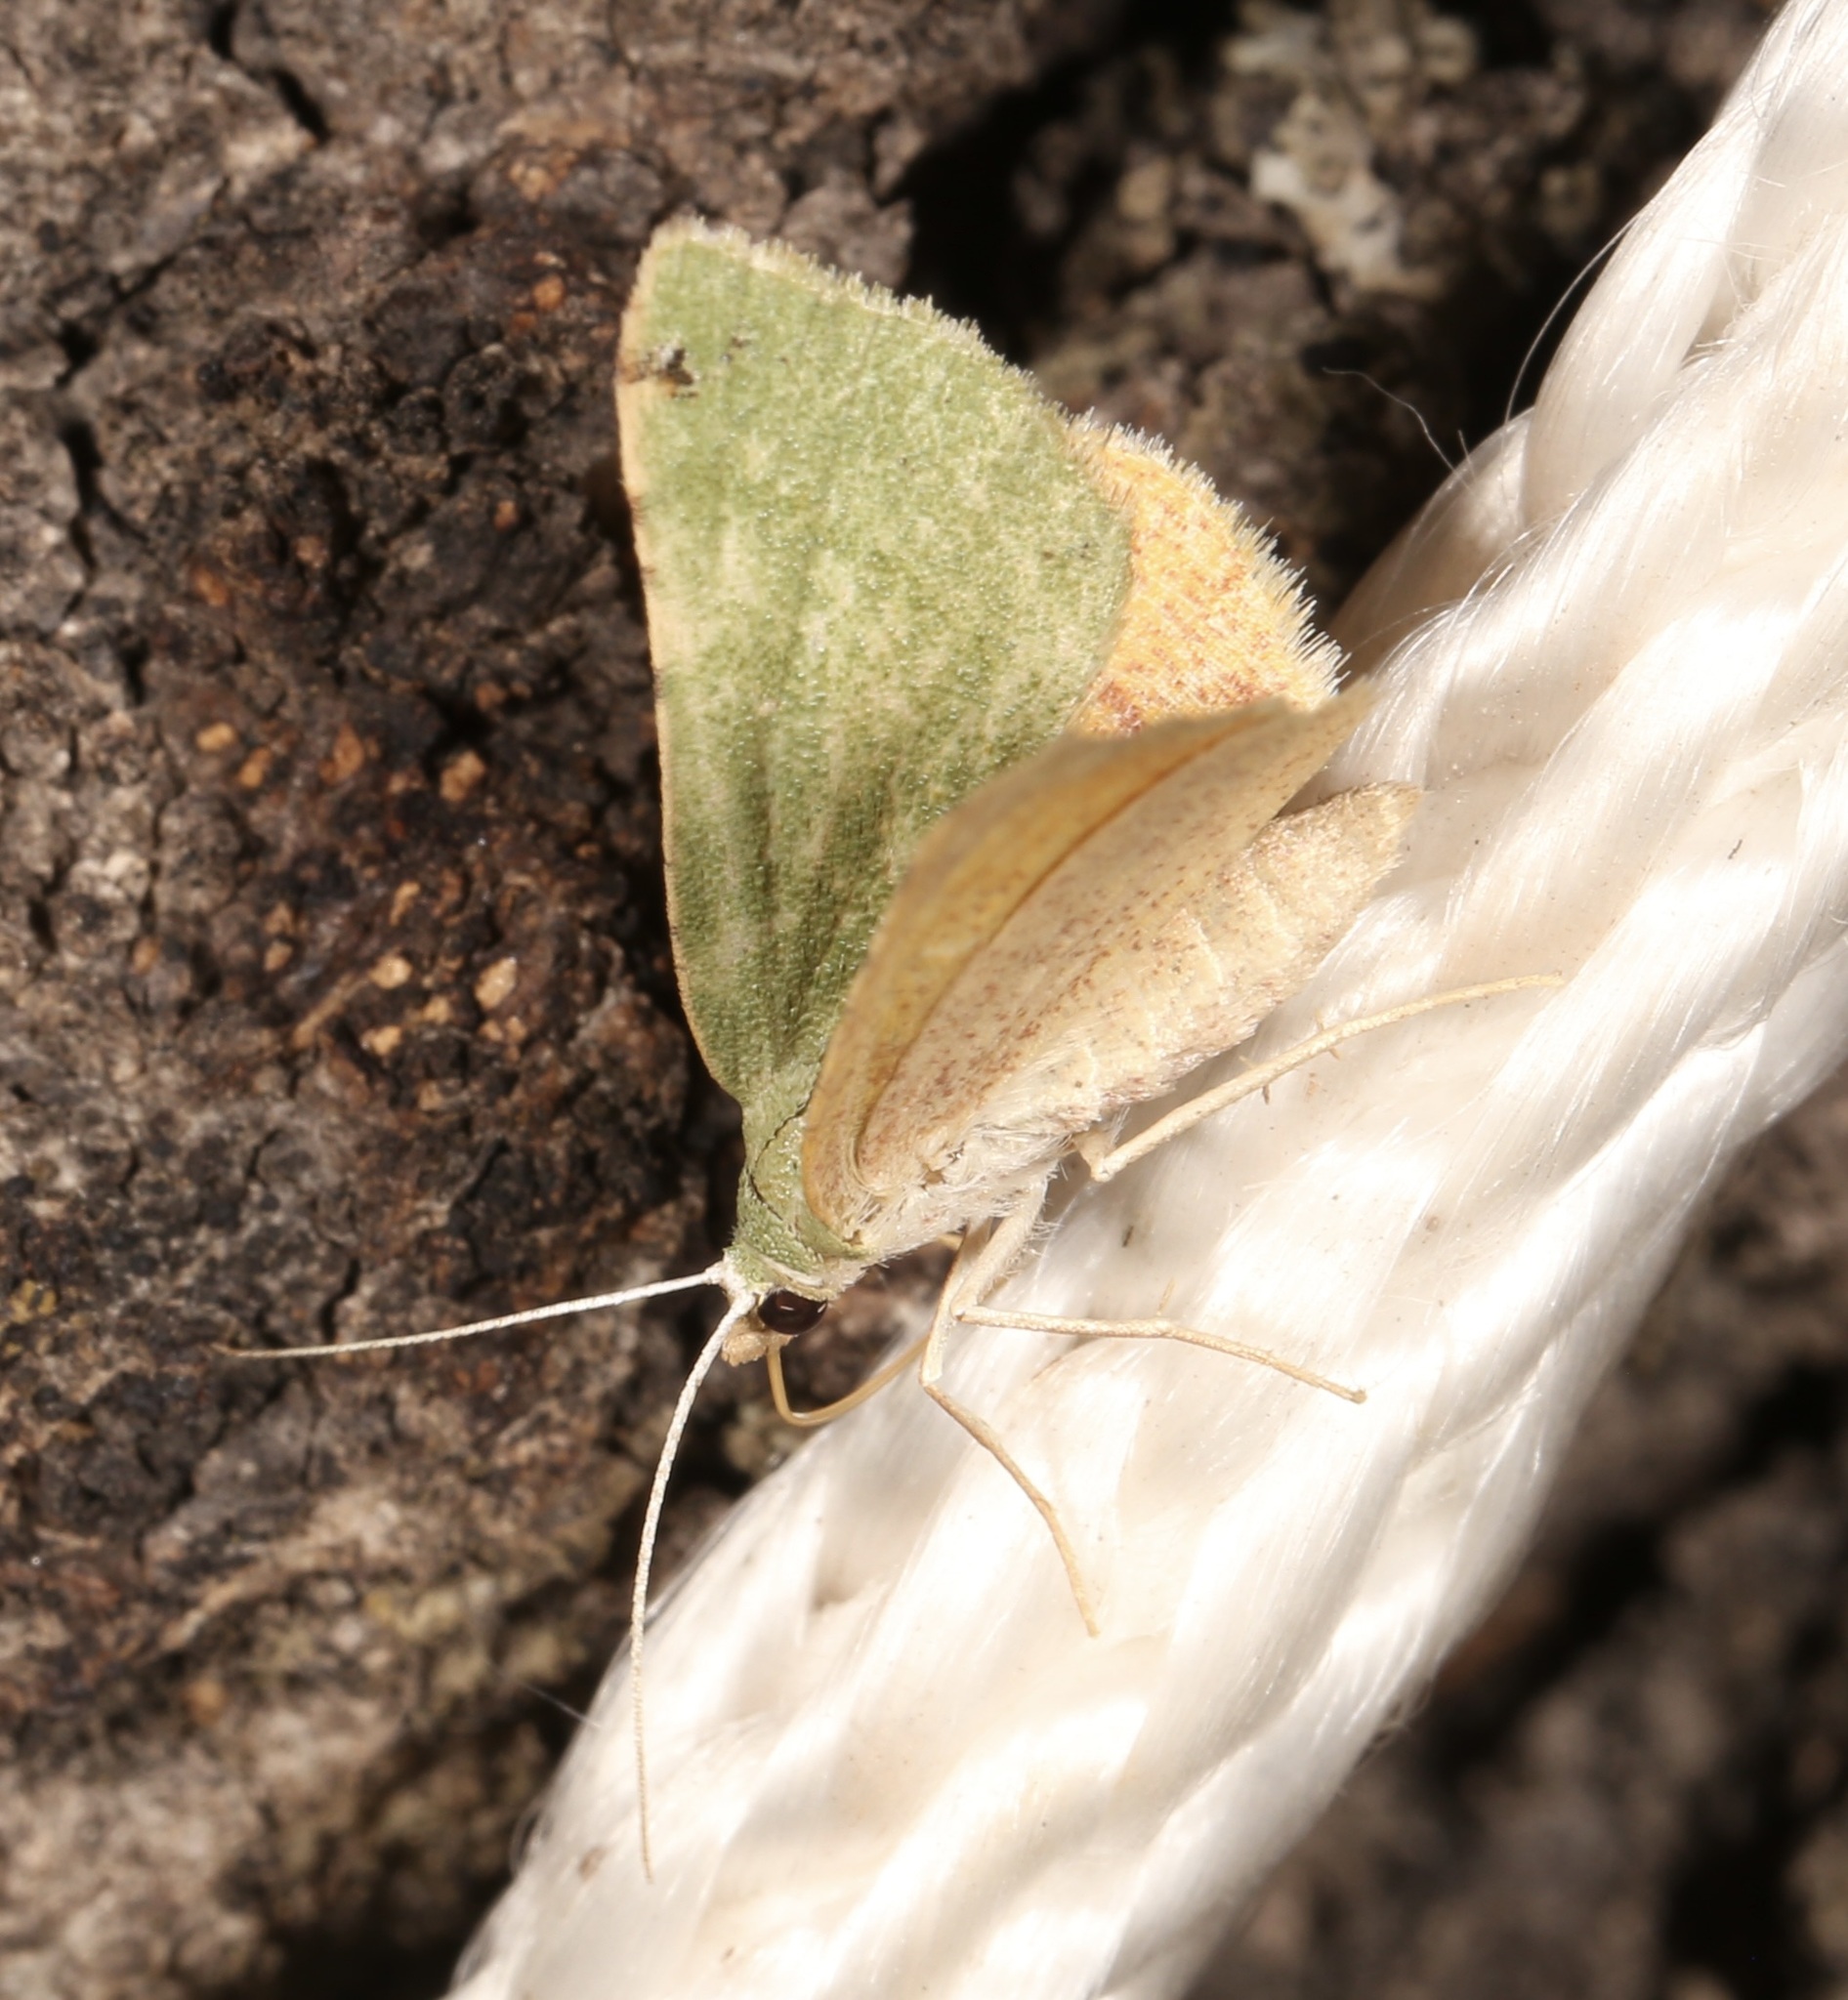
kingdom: Animalia
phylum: Arthropoda
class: Insecta
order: Lepidoptera
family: Geometridae
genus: Chloraspilates
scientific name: Chloraspilates bicoloraria
